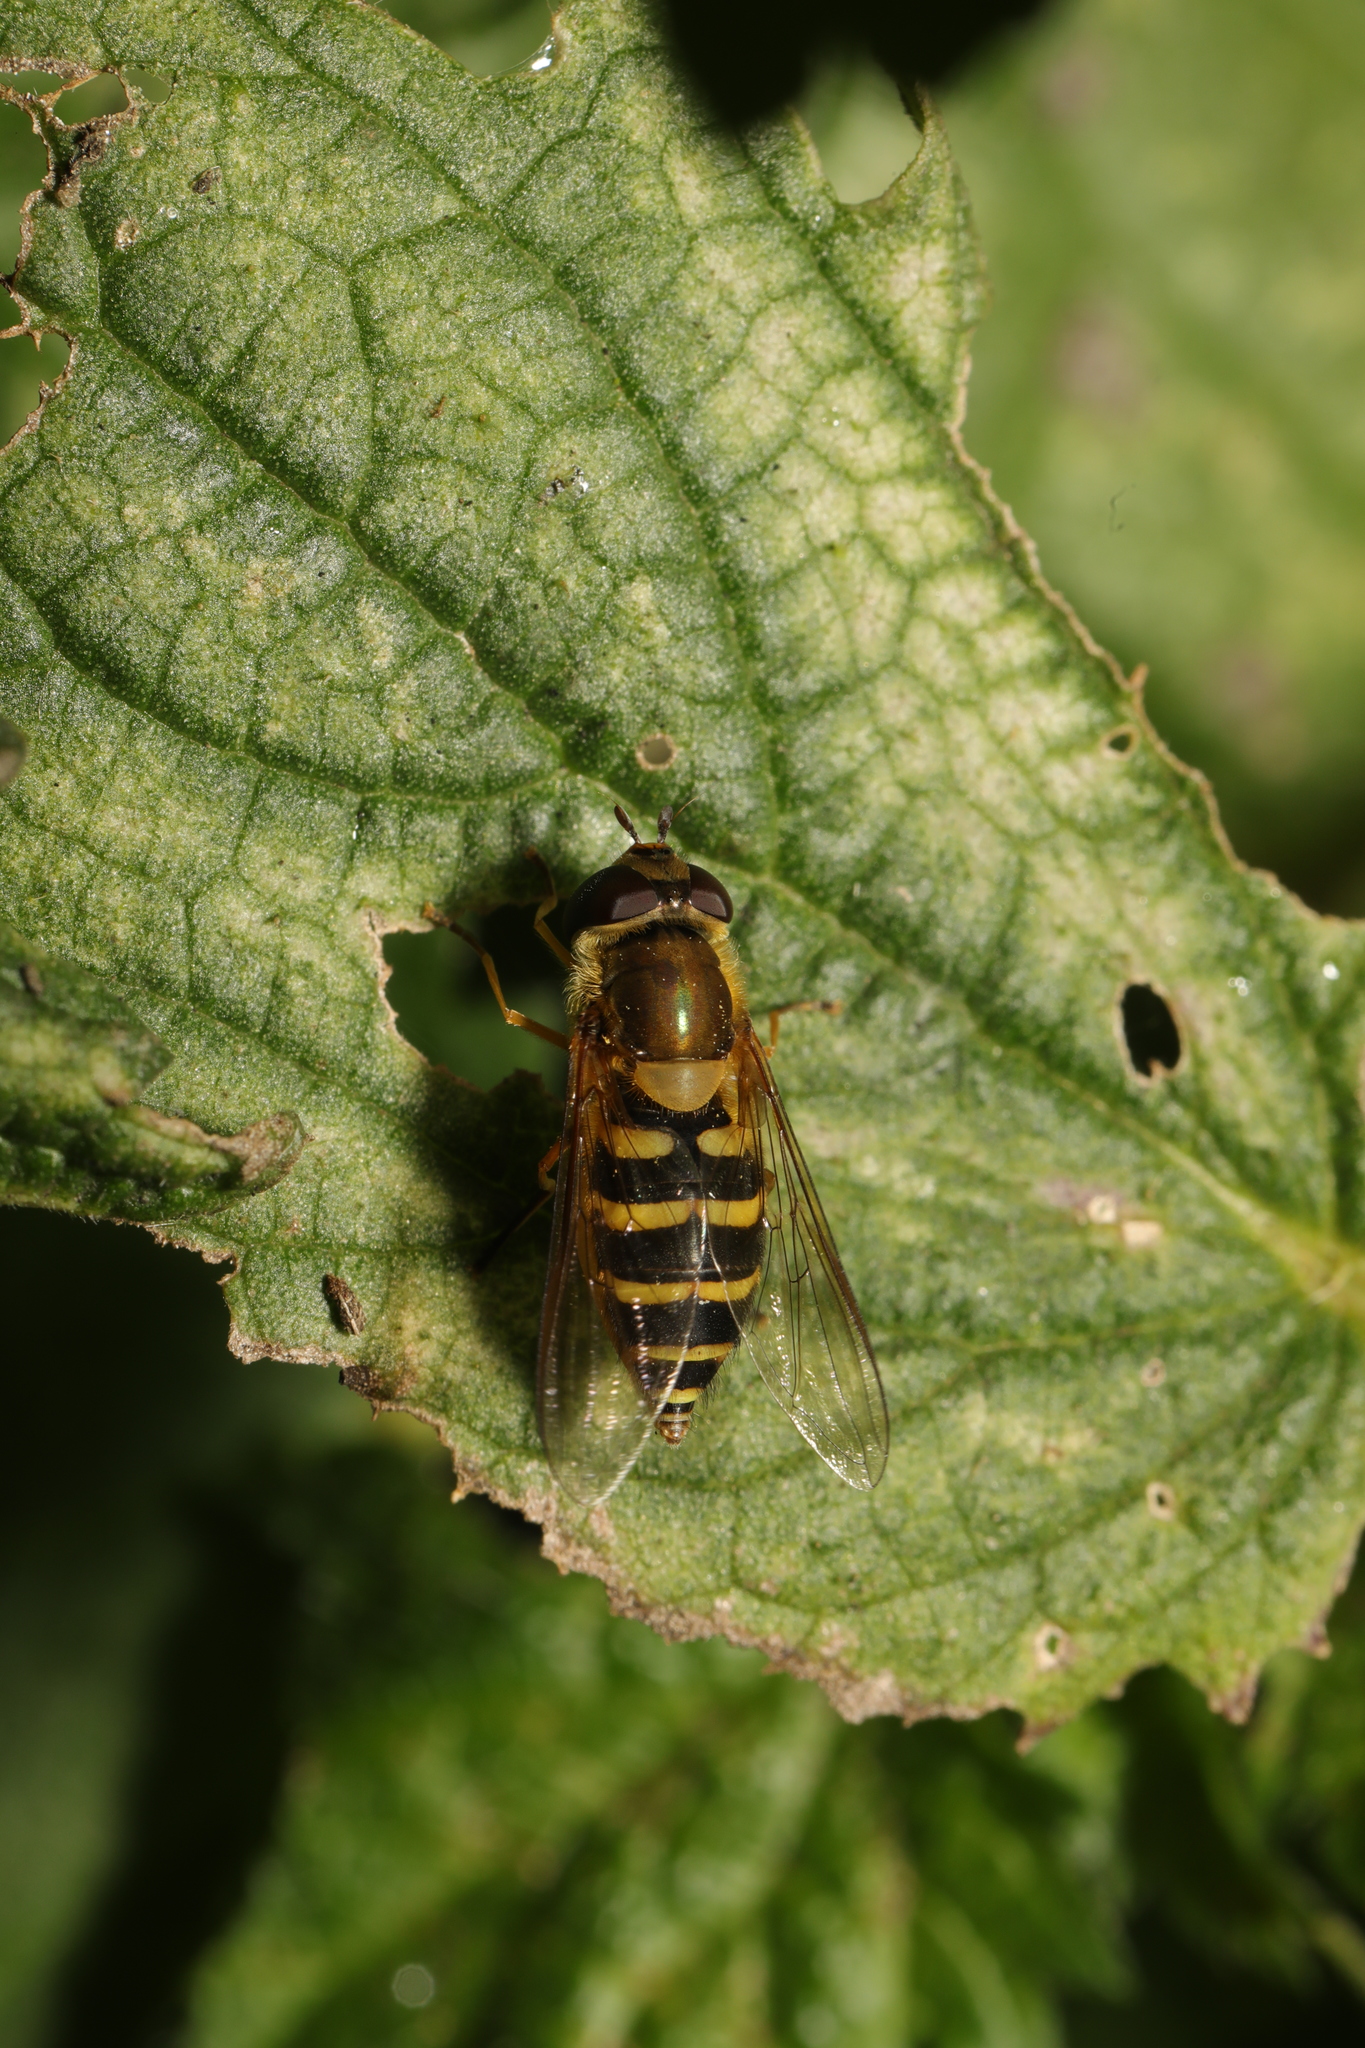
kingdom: Animalia
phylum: Arthropoda
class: Insecta
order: Diptera
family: Syrphidae
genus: Syrphus
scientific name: Syrphus
